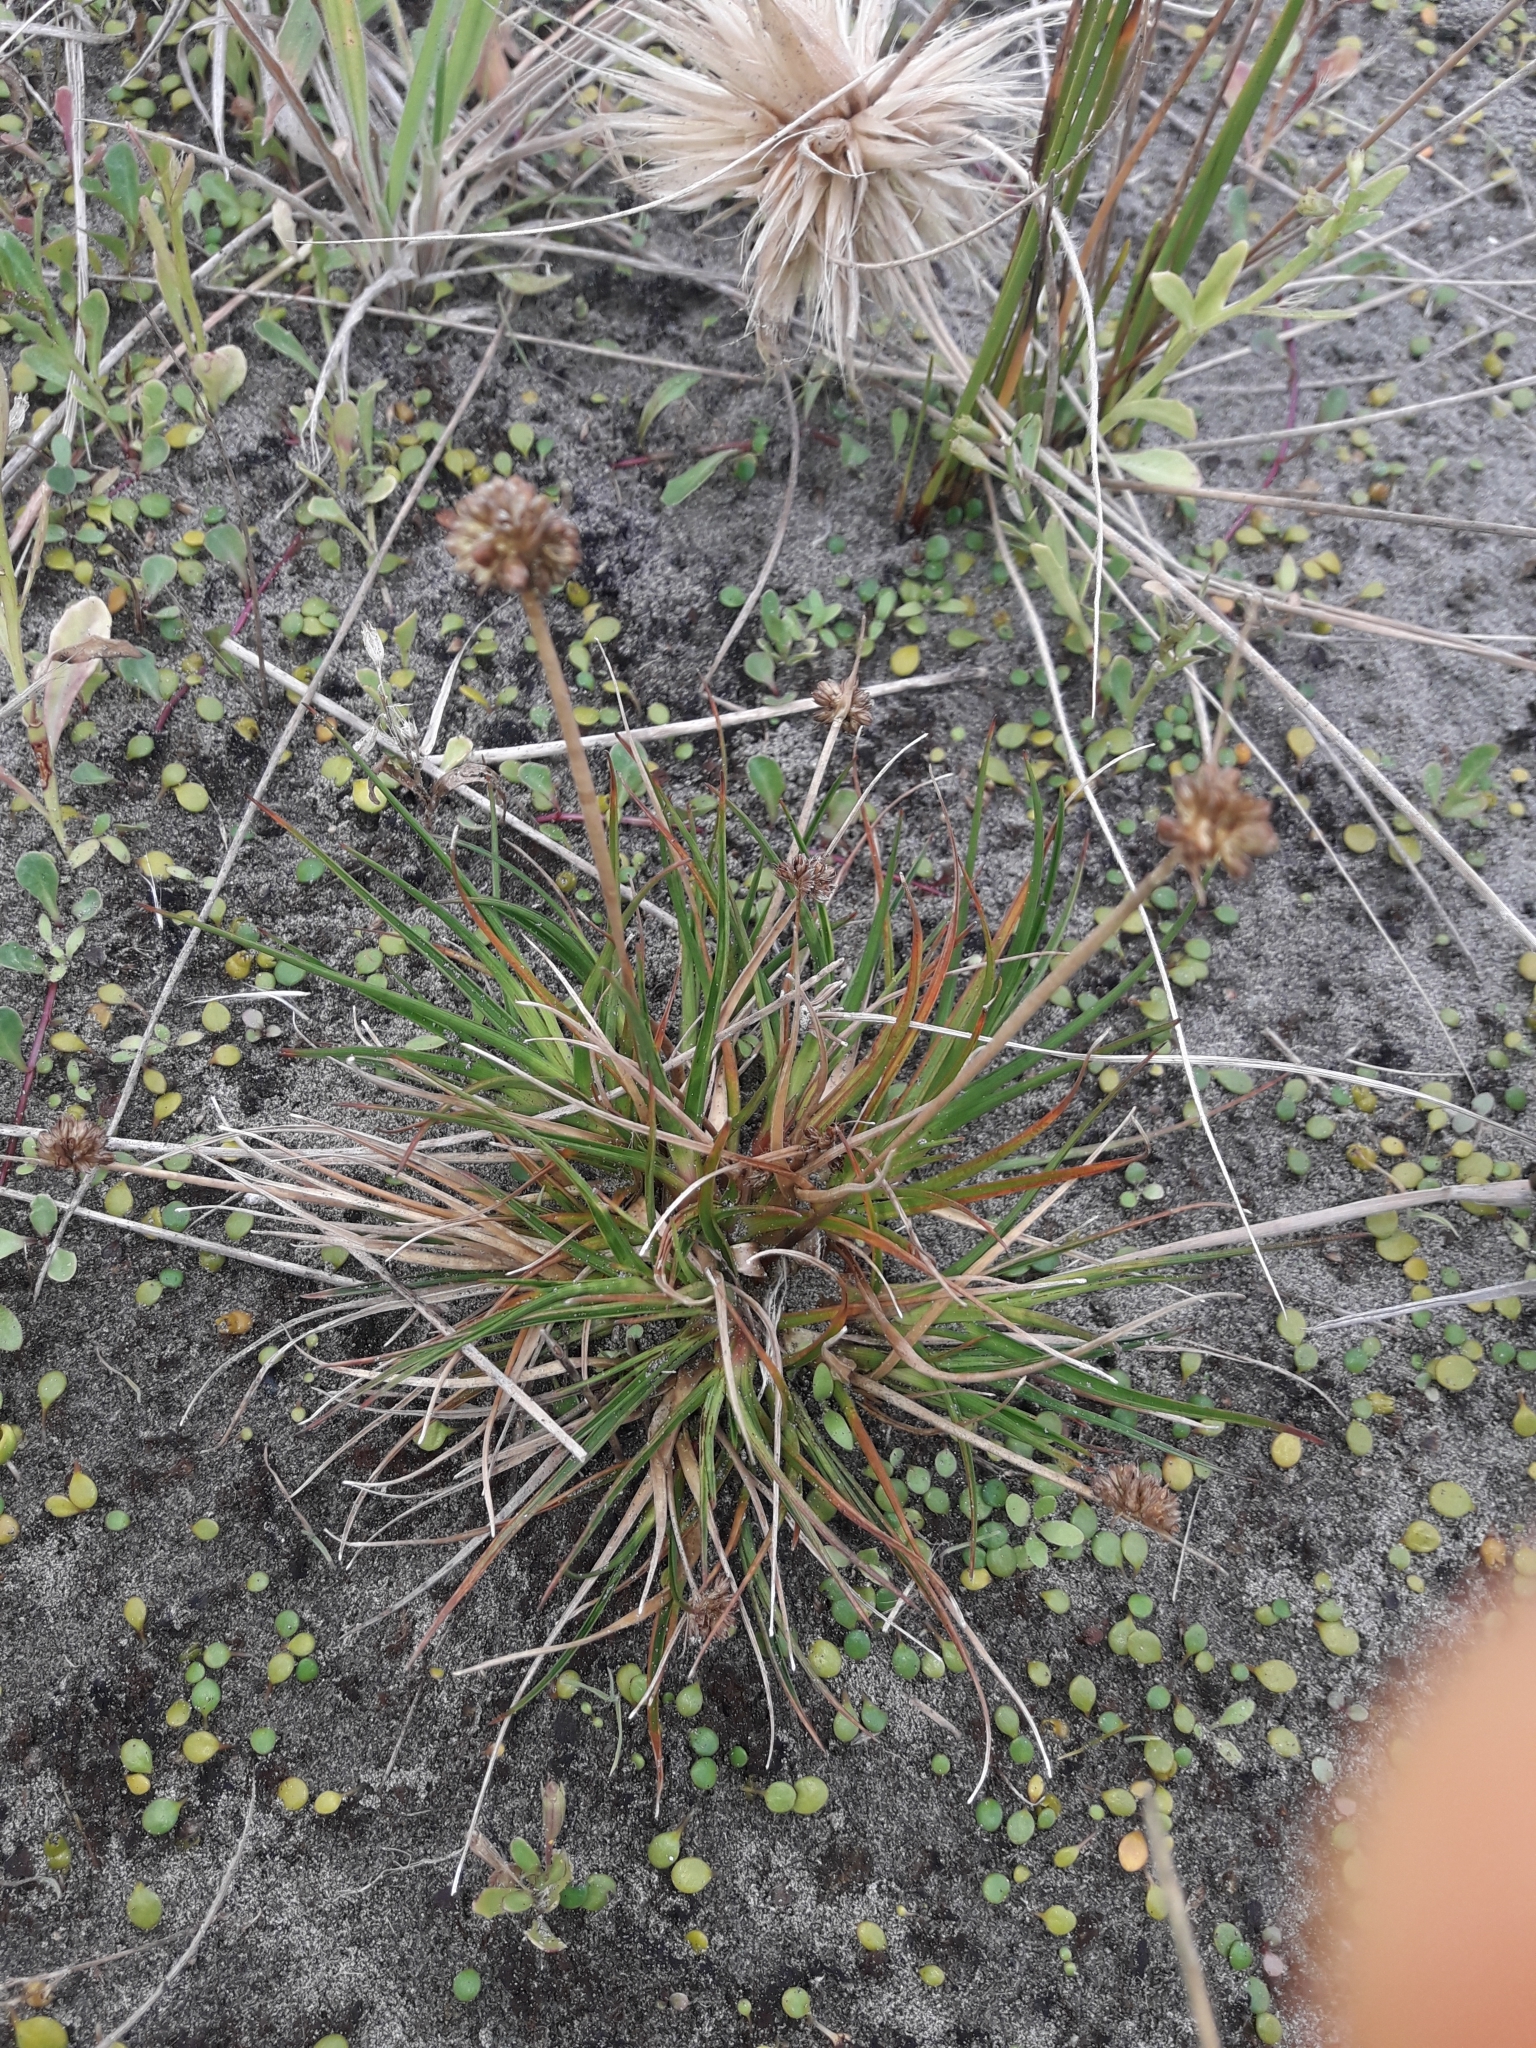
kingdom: Plantae
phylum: Tracheophyta
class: Liliopsida
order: Poales
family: Juncaceae
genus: Juncus
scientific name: Juncus caespiticius
